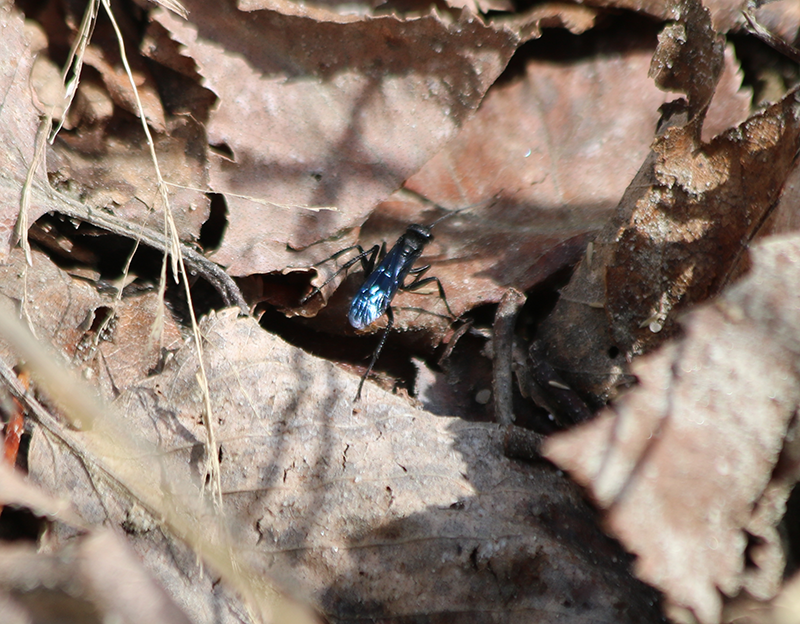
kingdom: Animalia
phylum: Arthropoda
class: Insecta
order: Hymenoptera
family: Pompilidae
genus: Priocnemis
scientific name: Priocnemis oregona
